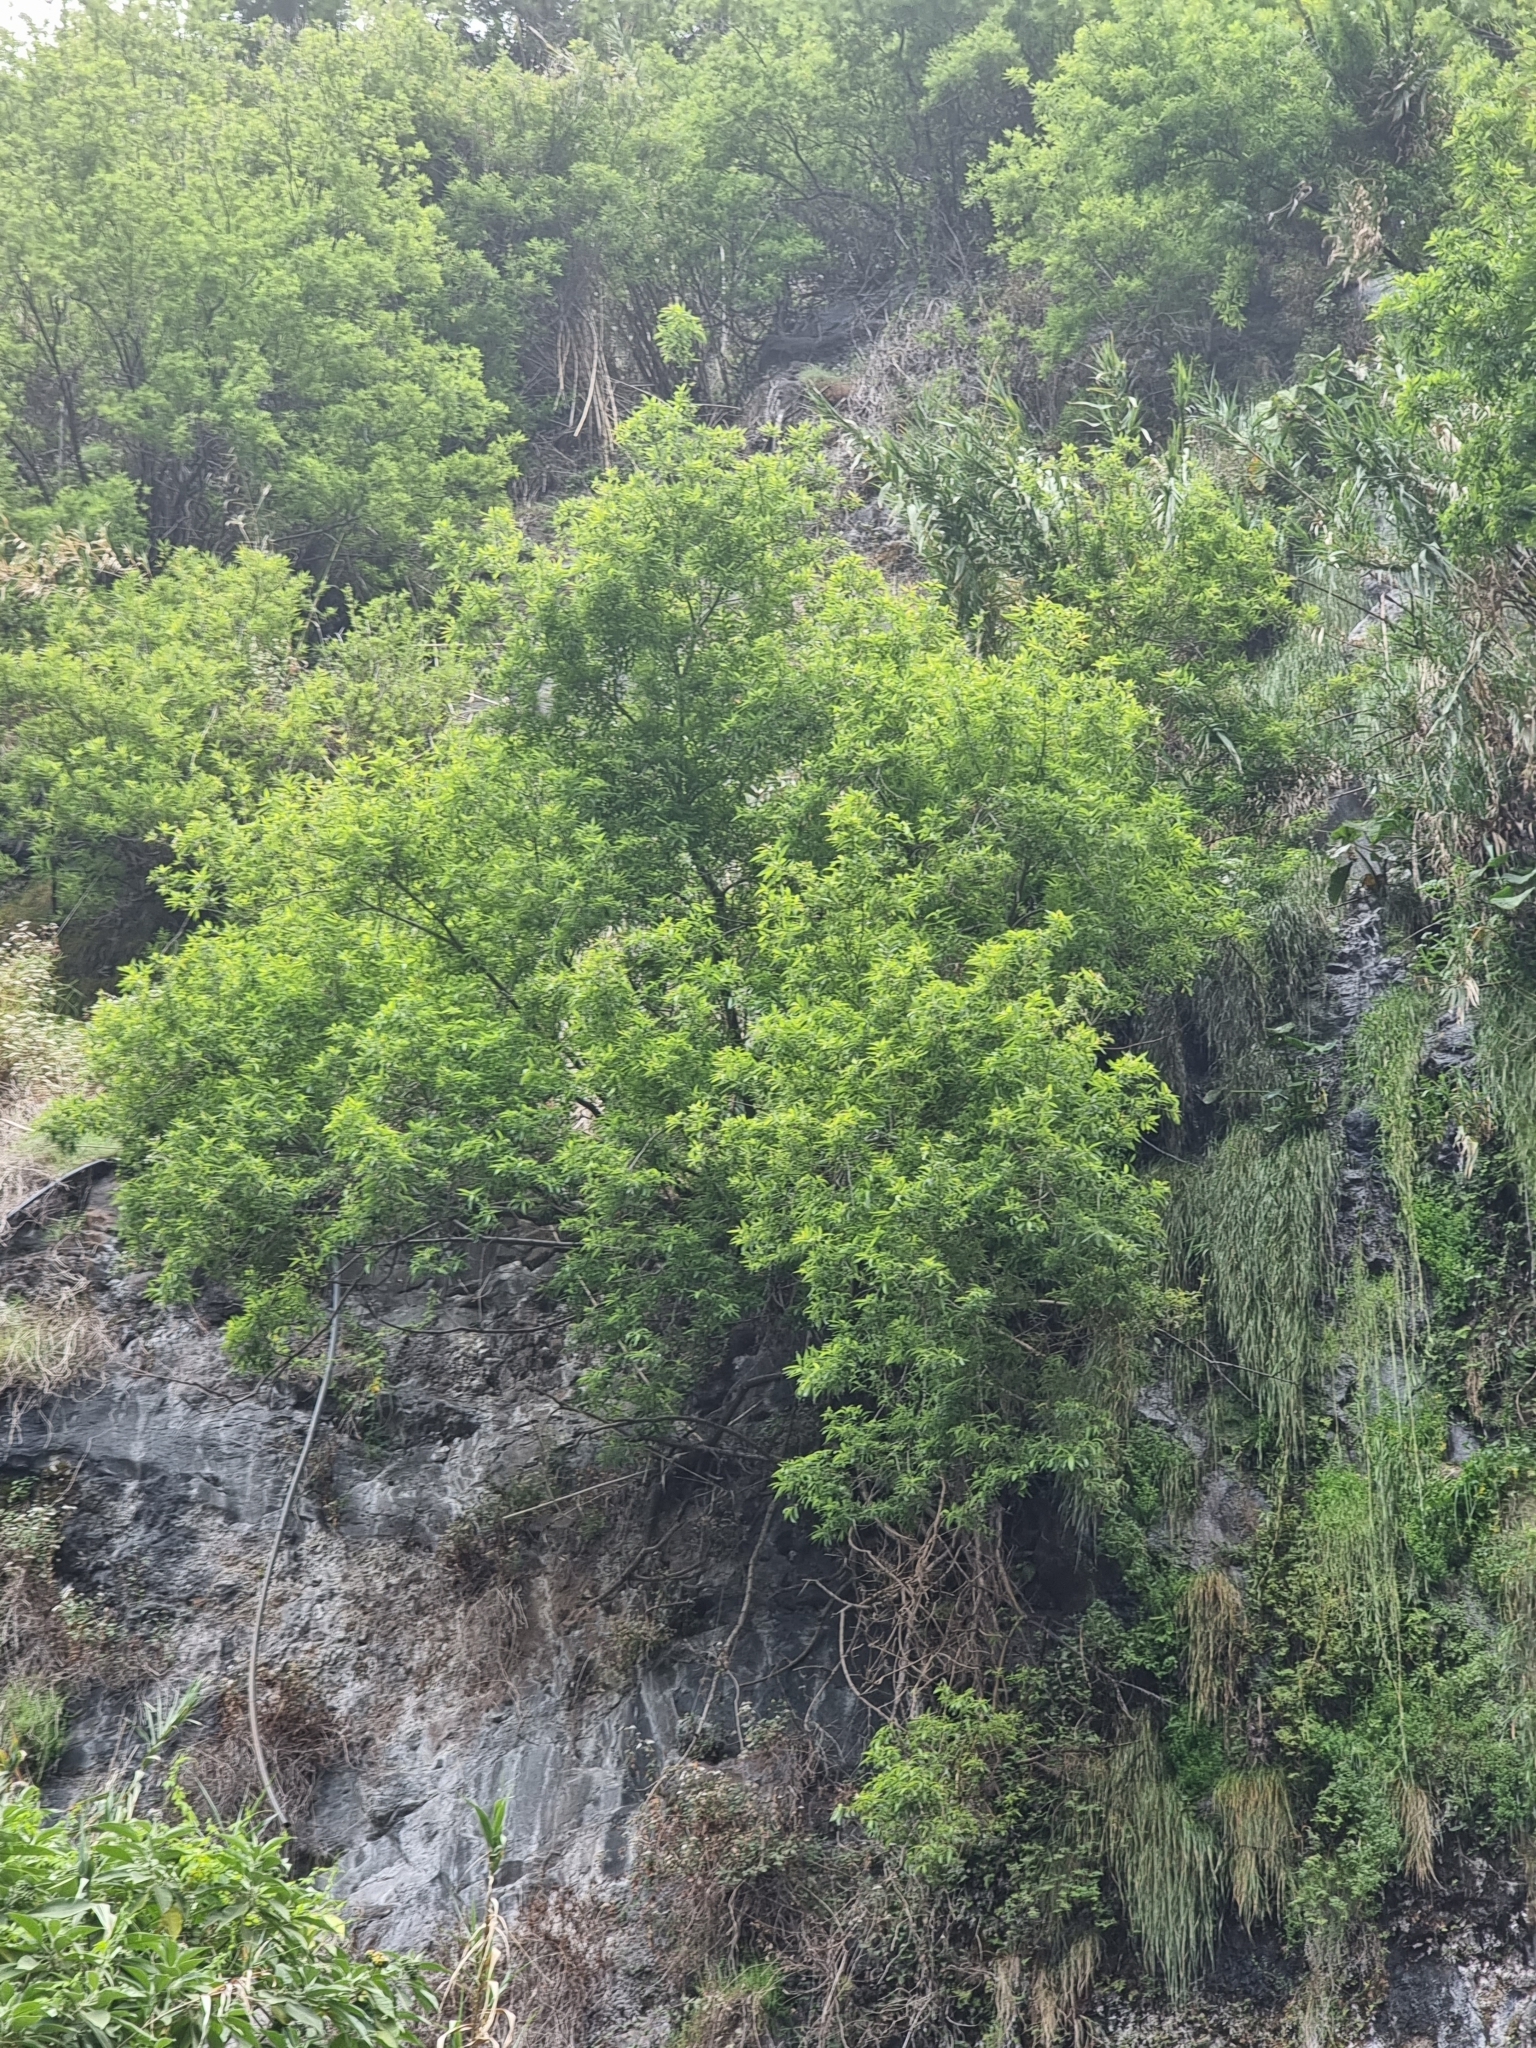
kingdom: Plantae
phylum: Tracheophyta
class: Magnoliopsida
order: Malpighiales
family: Salicaceae
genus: Salix
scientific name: Salix canariensis
